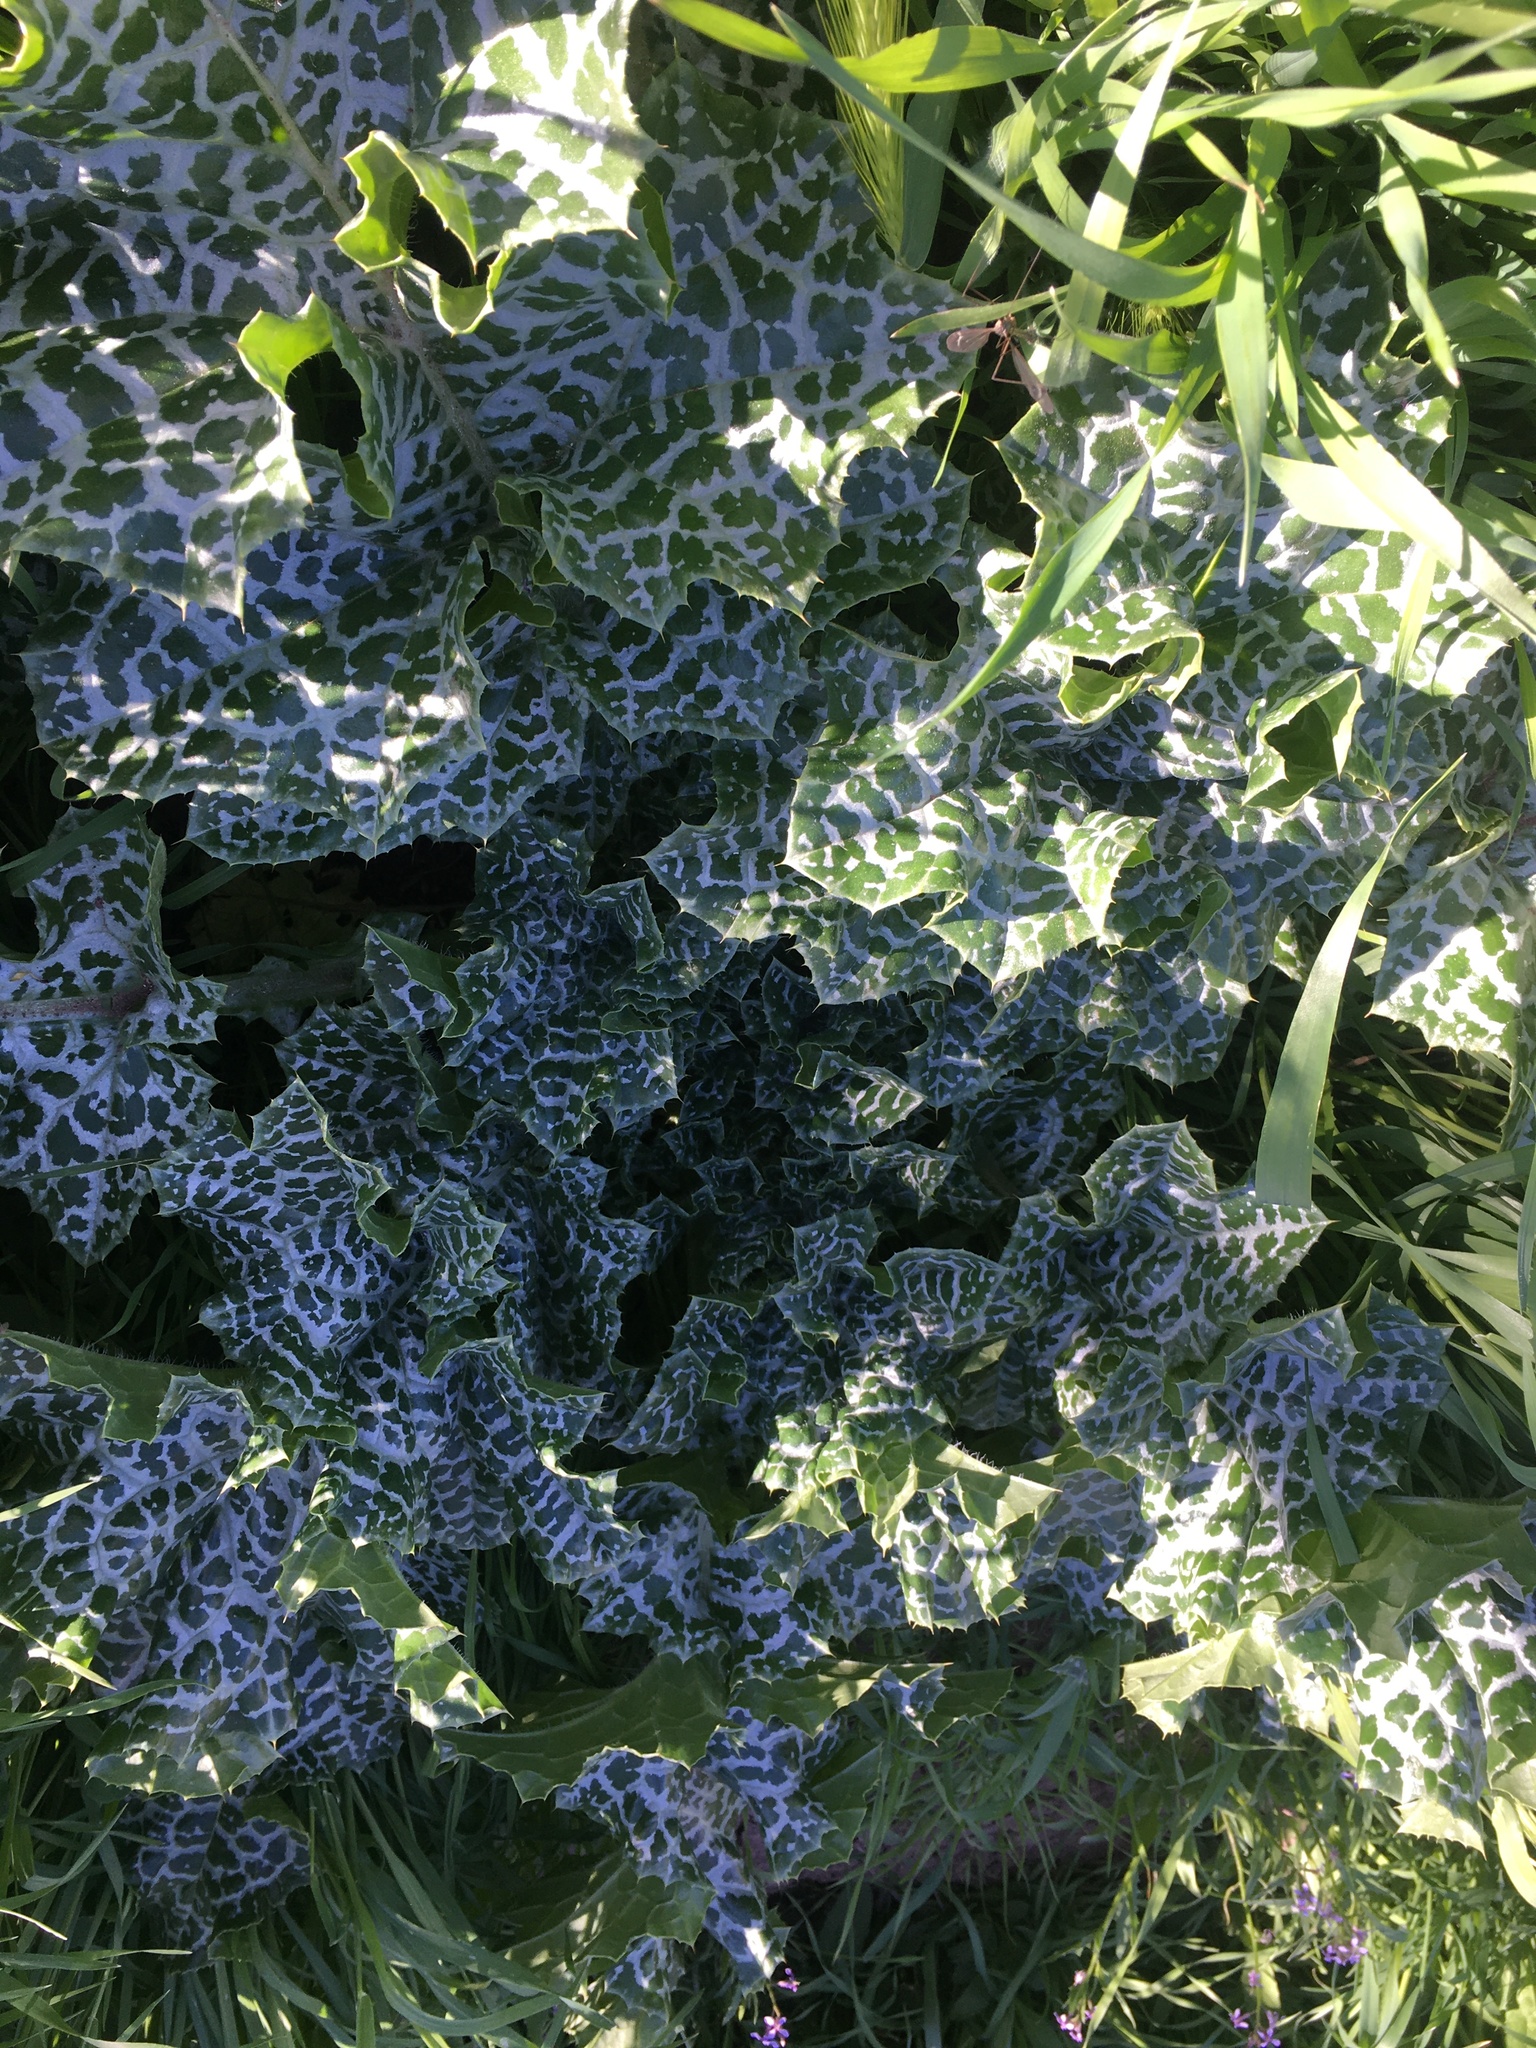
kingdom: Plantae
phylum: Tracheophyta
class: Magnoliopsida
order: Asterales
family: Asteraceae
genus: Silybum
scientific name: Silybum marianum
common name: Milk thistle
